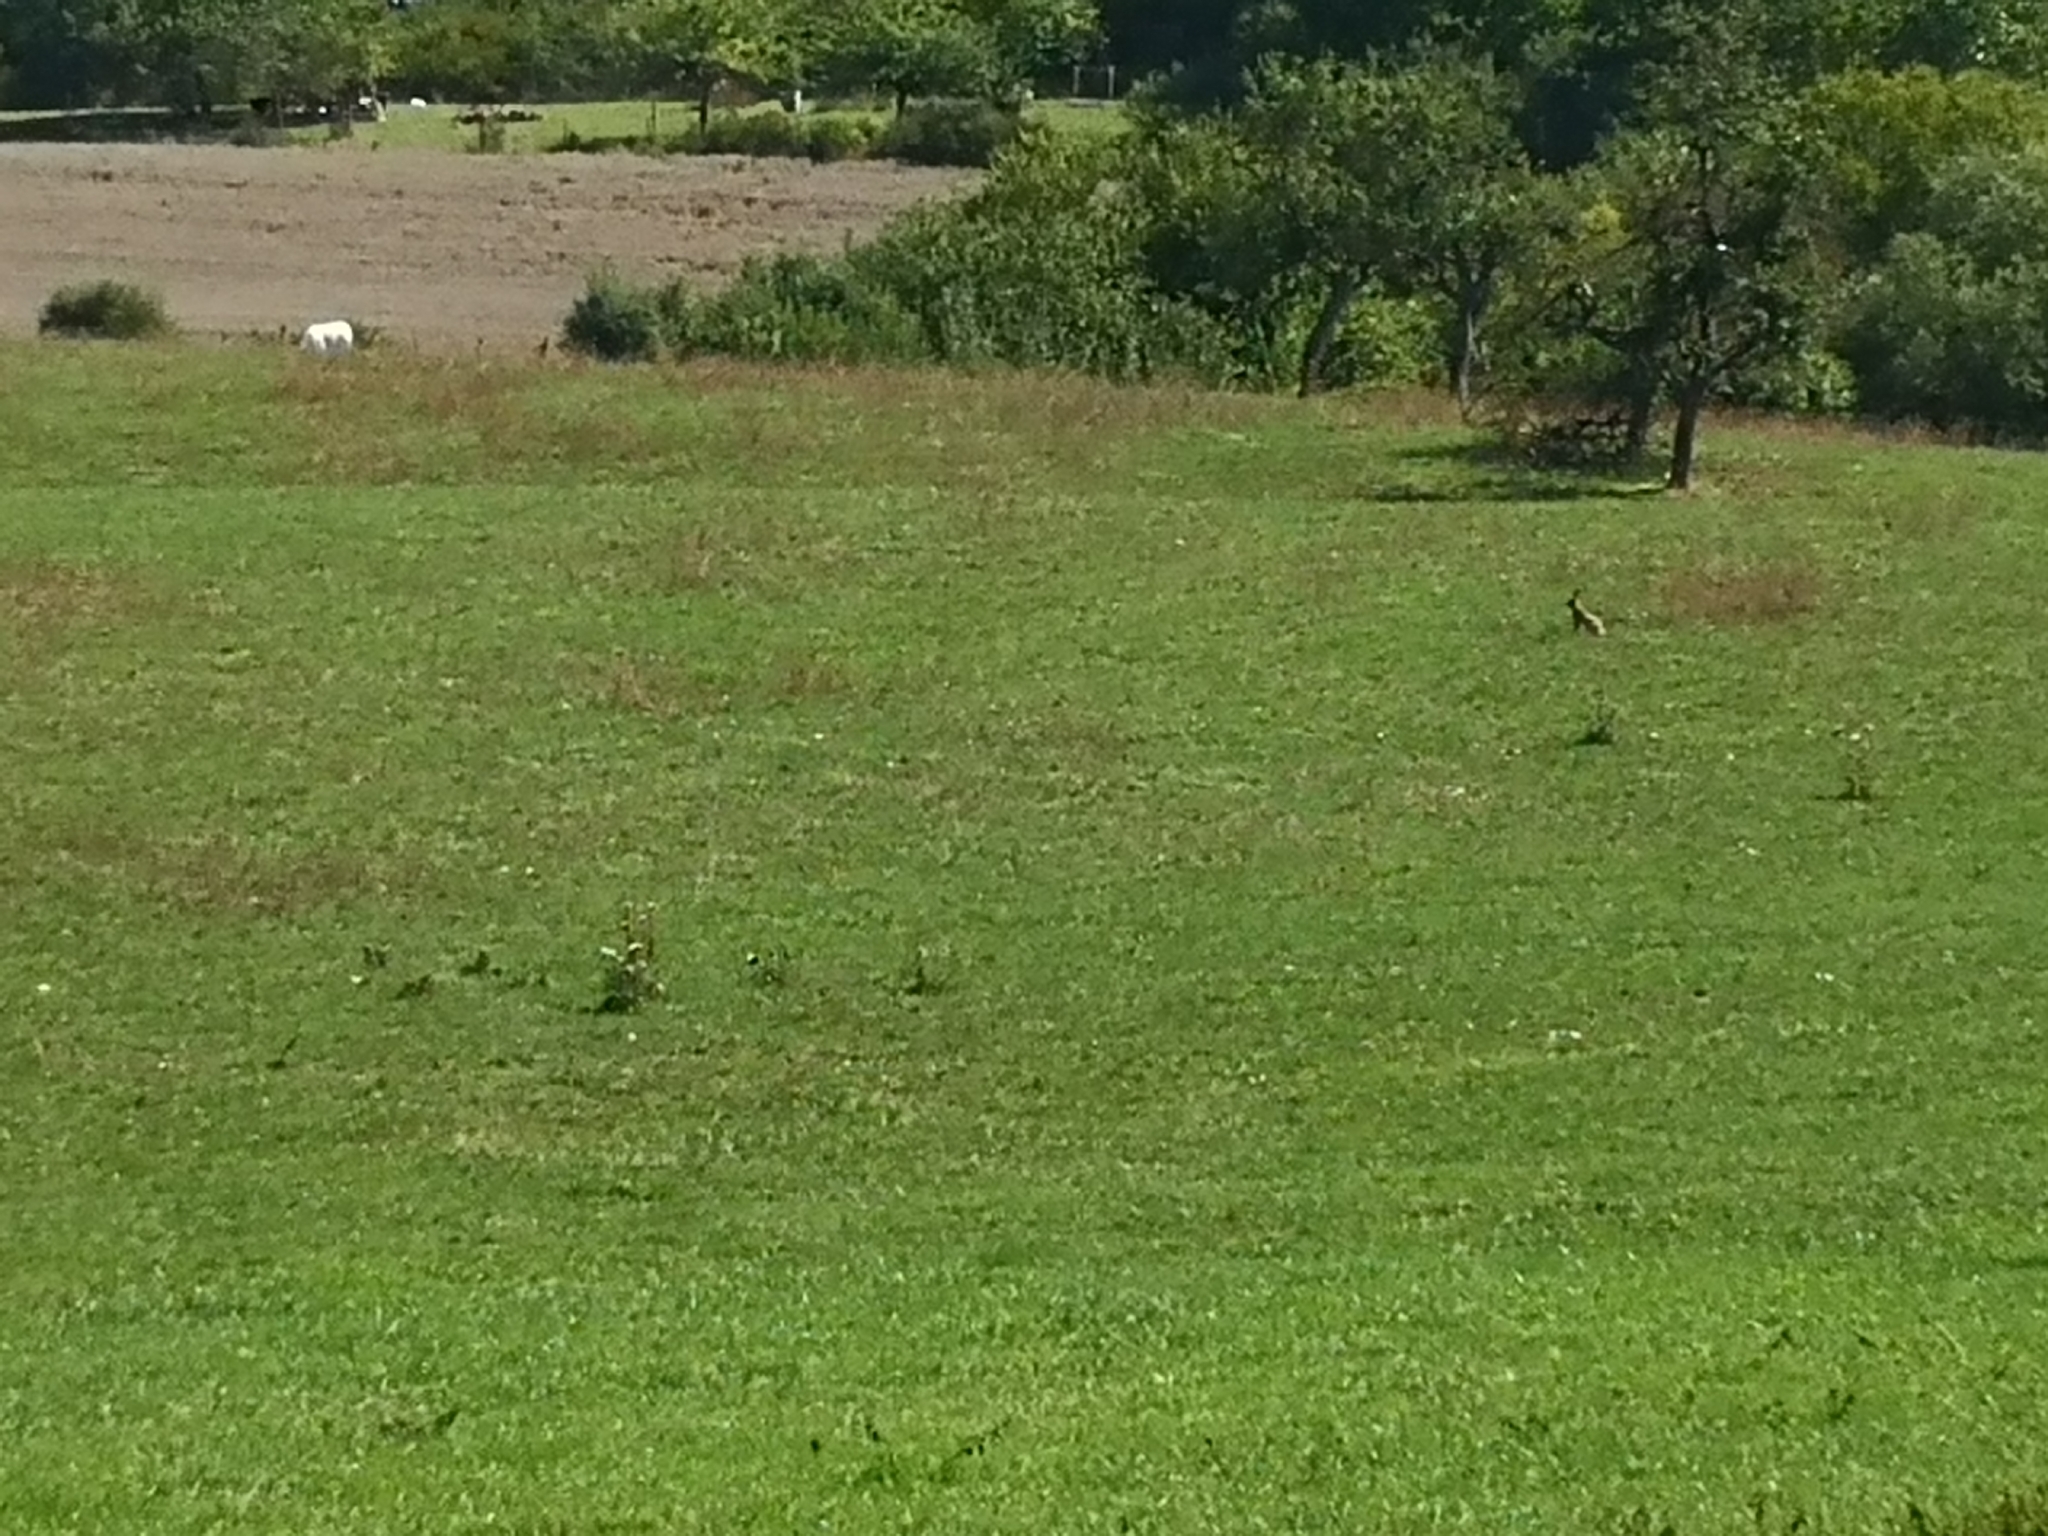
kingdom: Animalia
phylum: Chordata
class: Mammalia
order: Lagomorpha
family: Leporidae
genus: Lepus
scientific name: Lepus europaeus
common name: European hare
